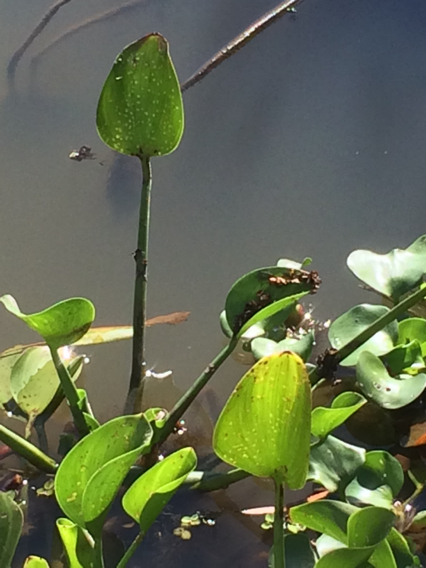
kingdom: Plantae
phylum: Tracheophyta
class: Liliopsida
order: Commelinales
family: Pontederiaceae
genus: Pontederia
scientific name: Pontederia crassipes
